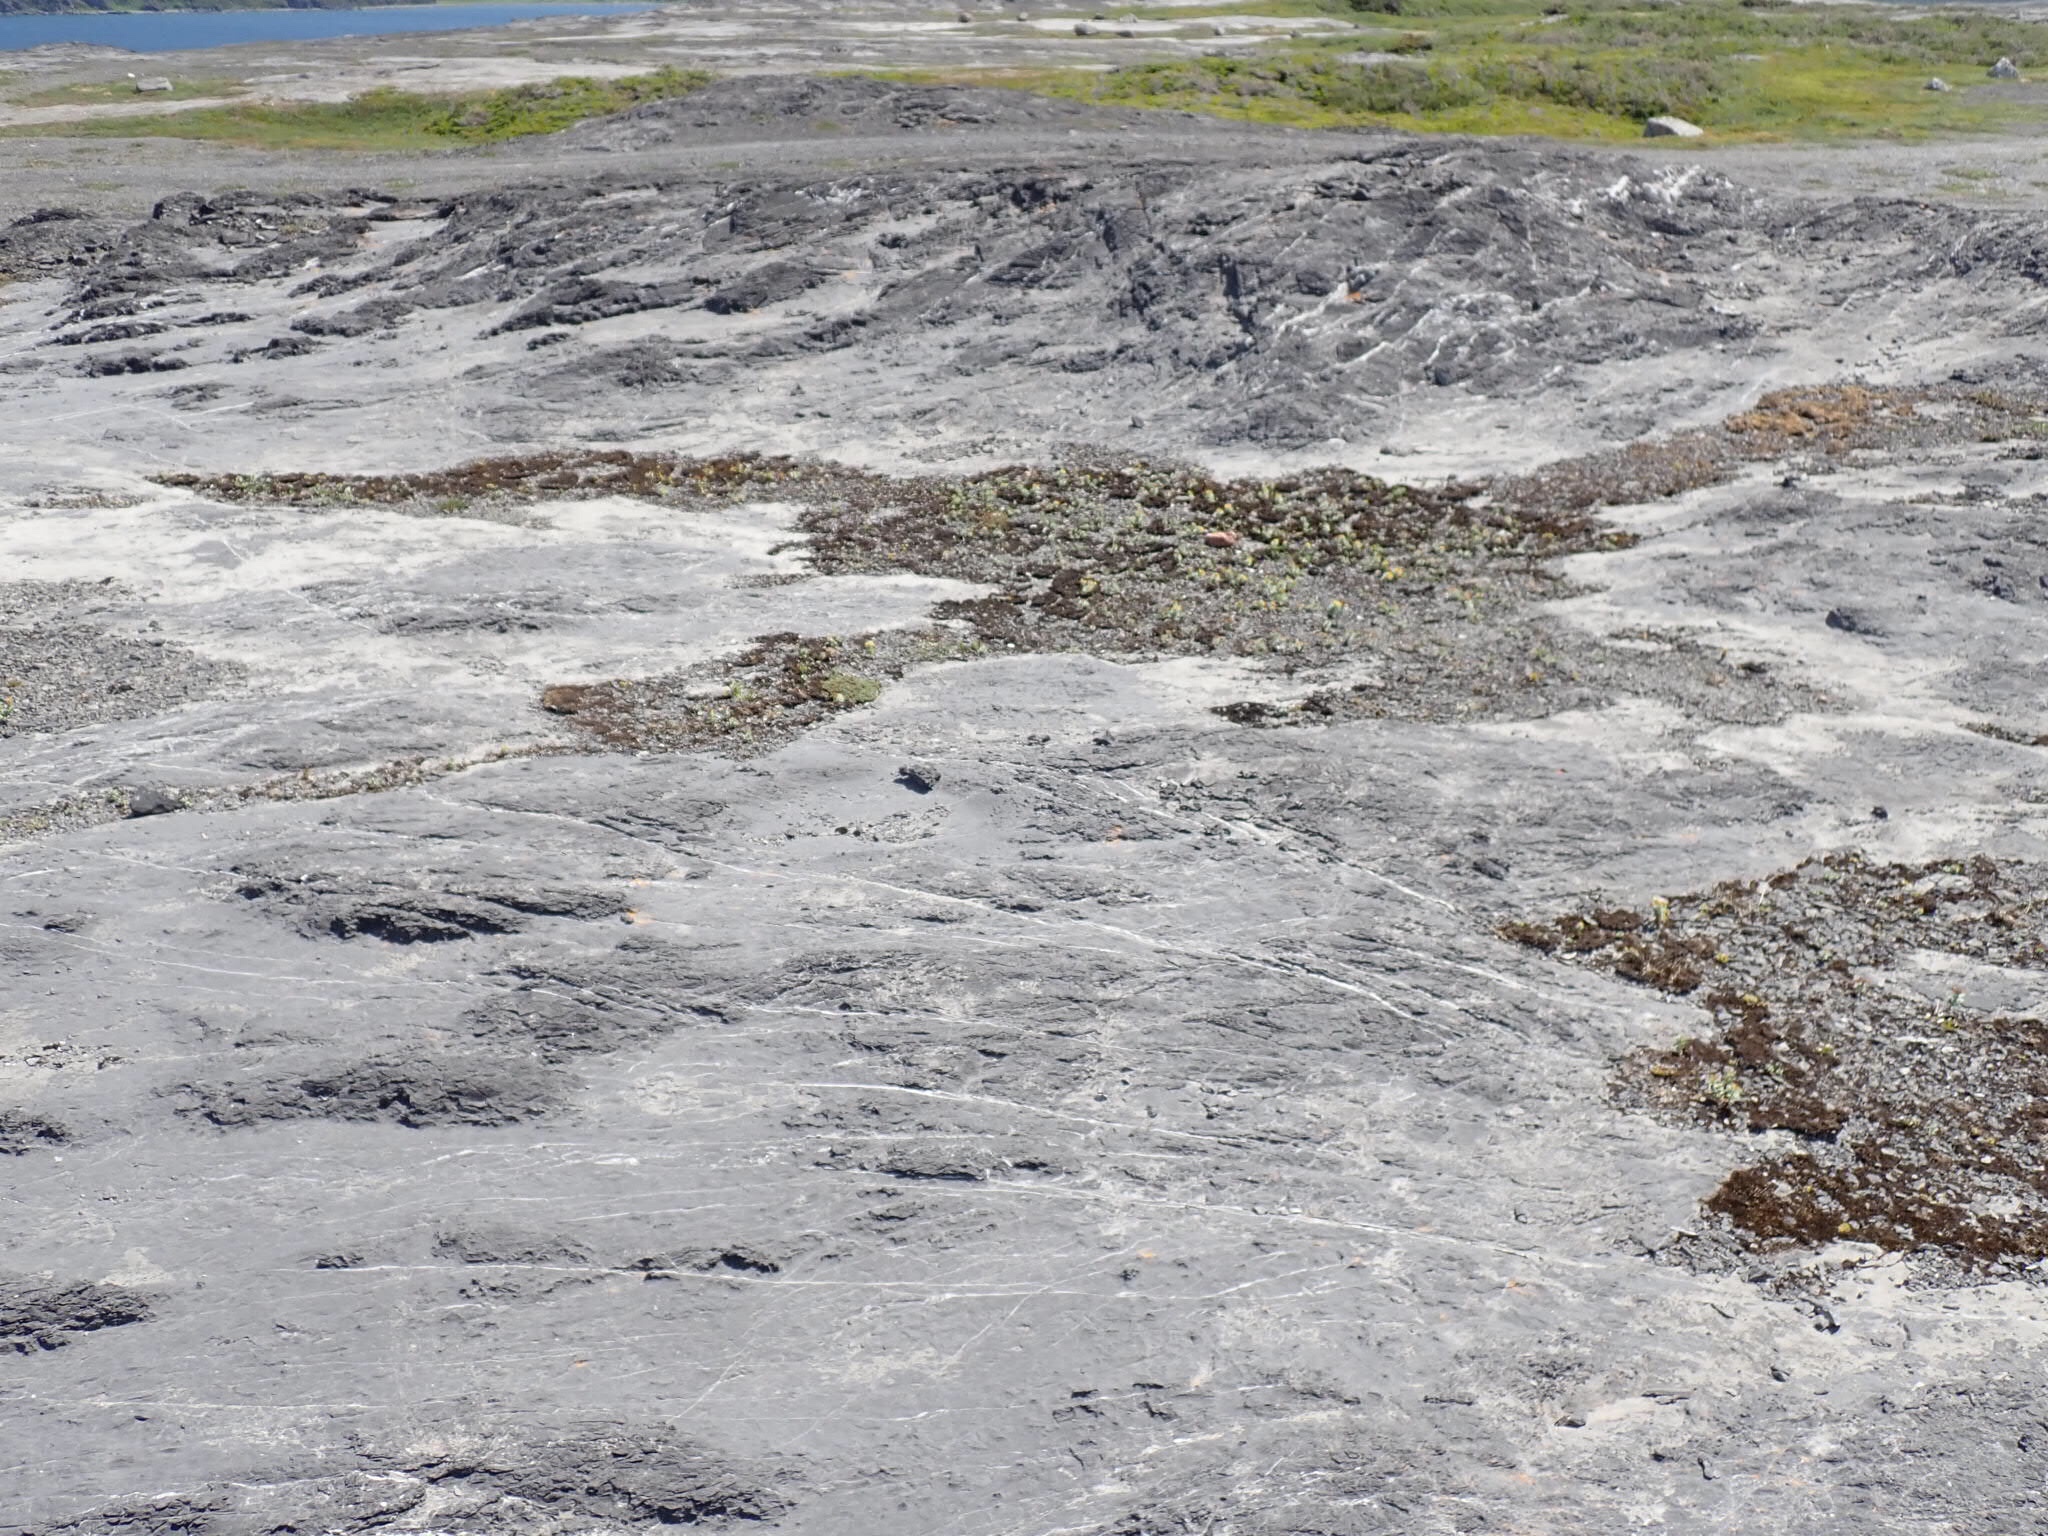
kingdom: Plantae
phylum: Tracheophyta
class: Magnoliopsida
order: Saxifragales
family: Crassulaceae
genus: Rhodiola
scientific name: Rhodiola rosea
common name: Roseroot
